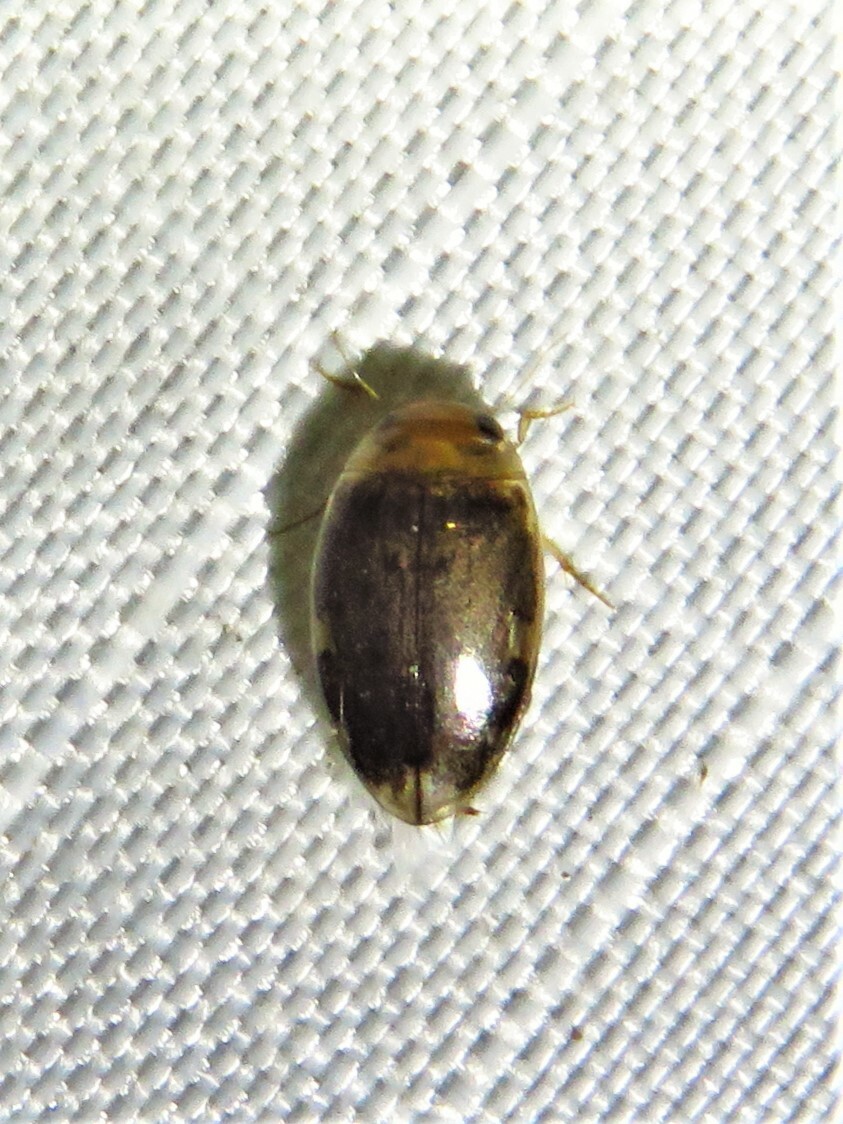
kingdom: Animalia
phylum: Arthropoda
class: Insecta
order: Coleoptera
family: Dytiscidae
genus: Laccophilus
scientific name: Laccophilus proximus
